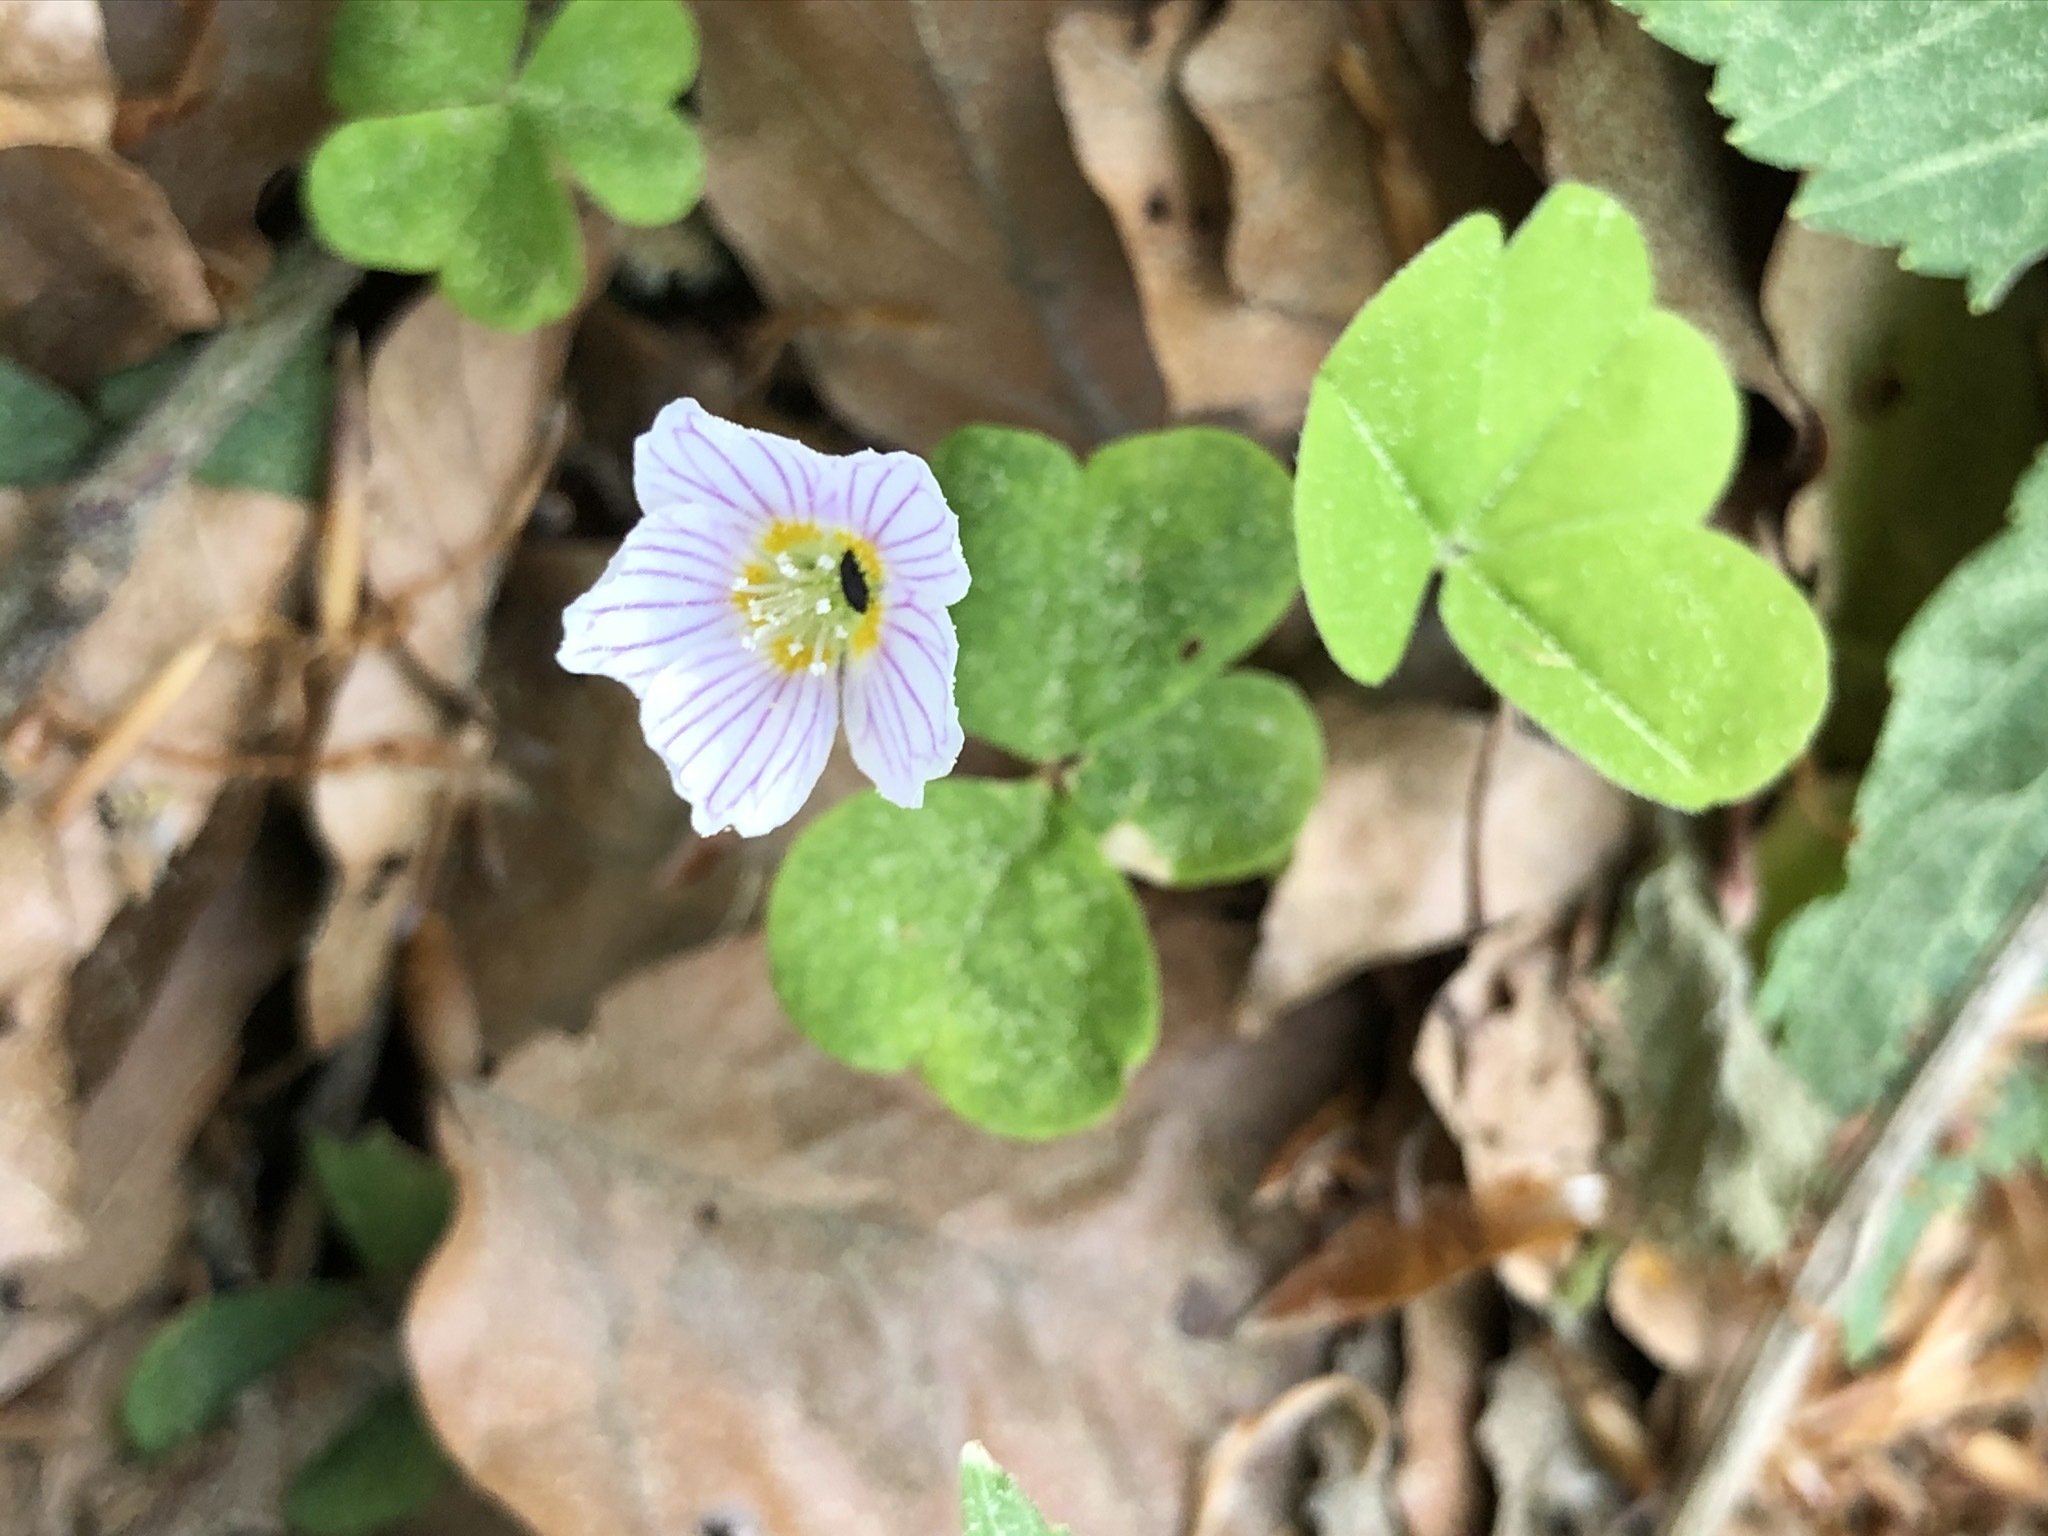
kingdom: Plantae
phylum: Tracheophyta
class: Magnoliopsida
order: Oxalidales
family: Oxalidaceae
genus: Oxalis
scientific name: Oxalis acetosella
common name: Wood-sorrel
